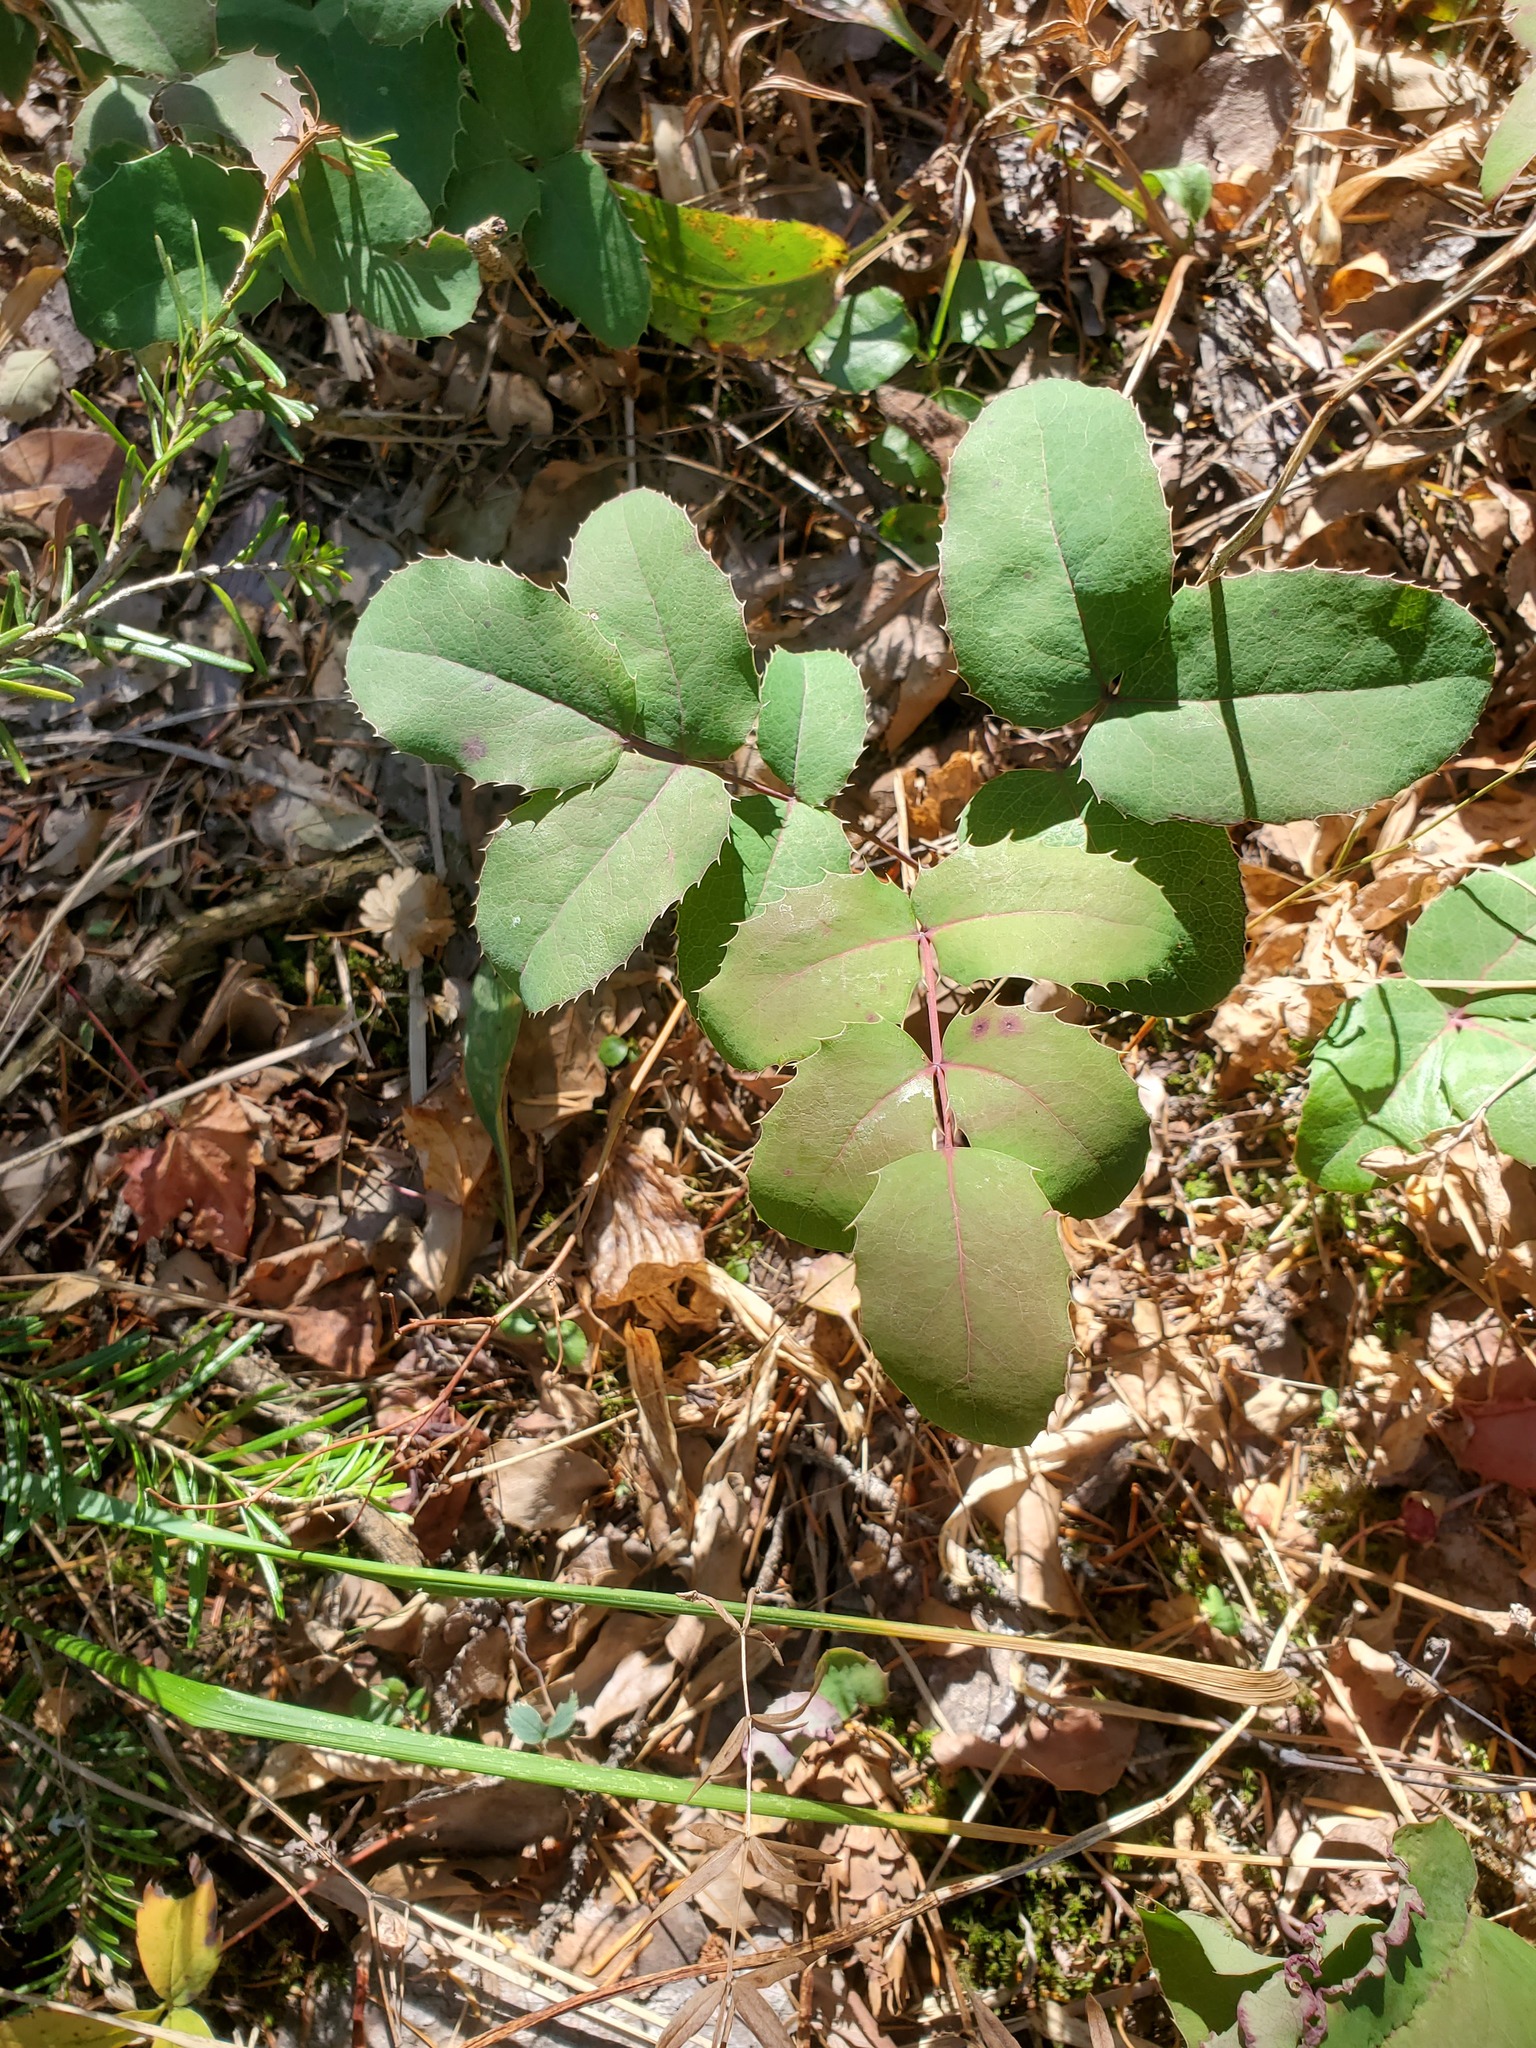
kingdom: Plantae
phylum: Tracheophyta
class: Magnoliopsida
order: Ranunculales
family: Berberidaceae
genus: Mahonia
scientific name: Mahonia repens
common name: Creeping oregon-grape
